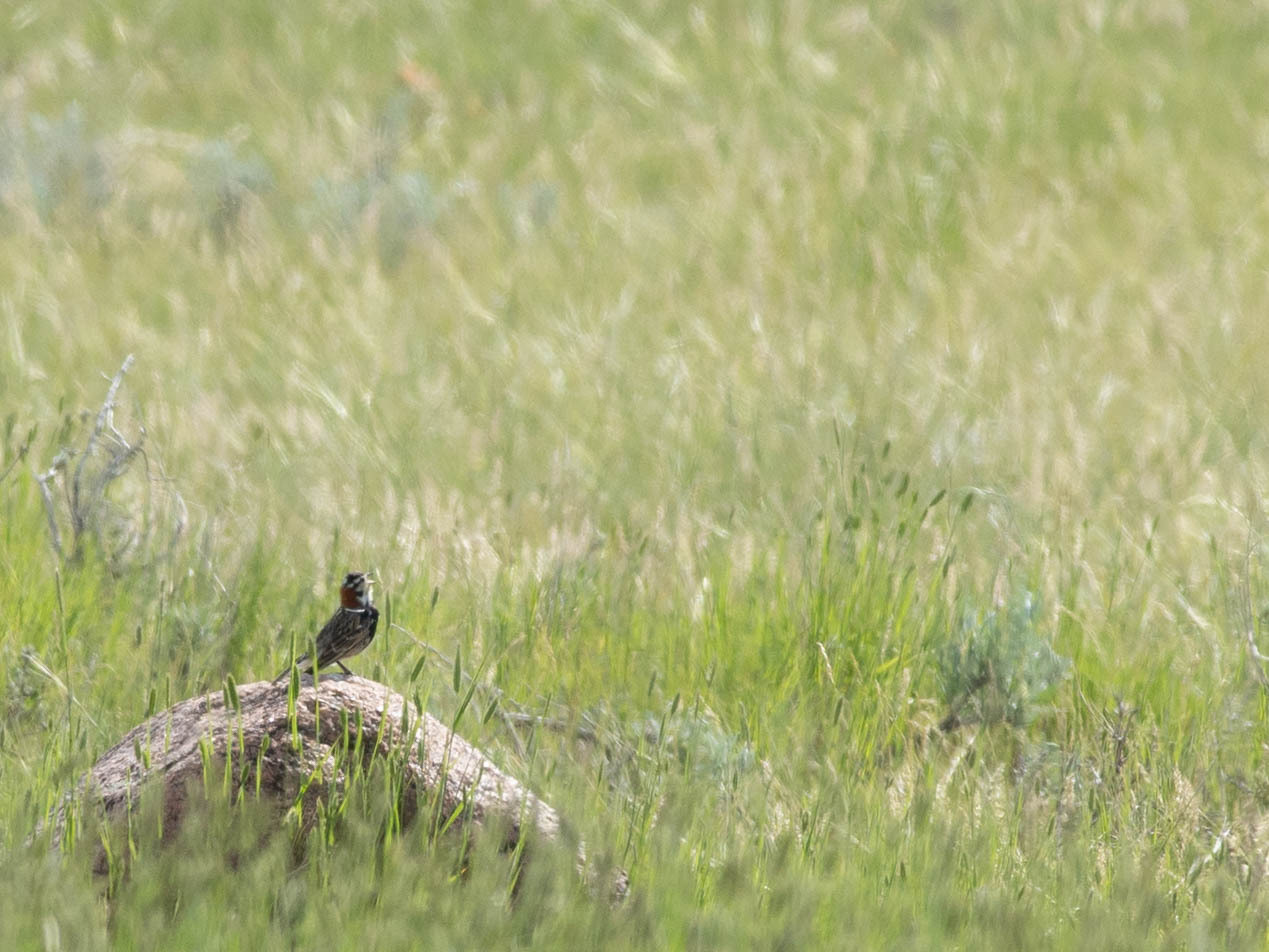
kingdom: Animalia
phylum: Chordata
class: Aves
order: Passeriformes
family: Calcariidae
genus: Calcarius
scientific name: Calcarius ornatus
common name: Chestnut-collared longspur
